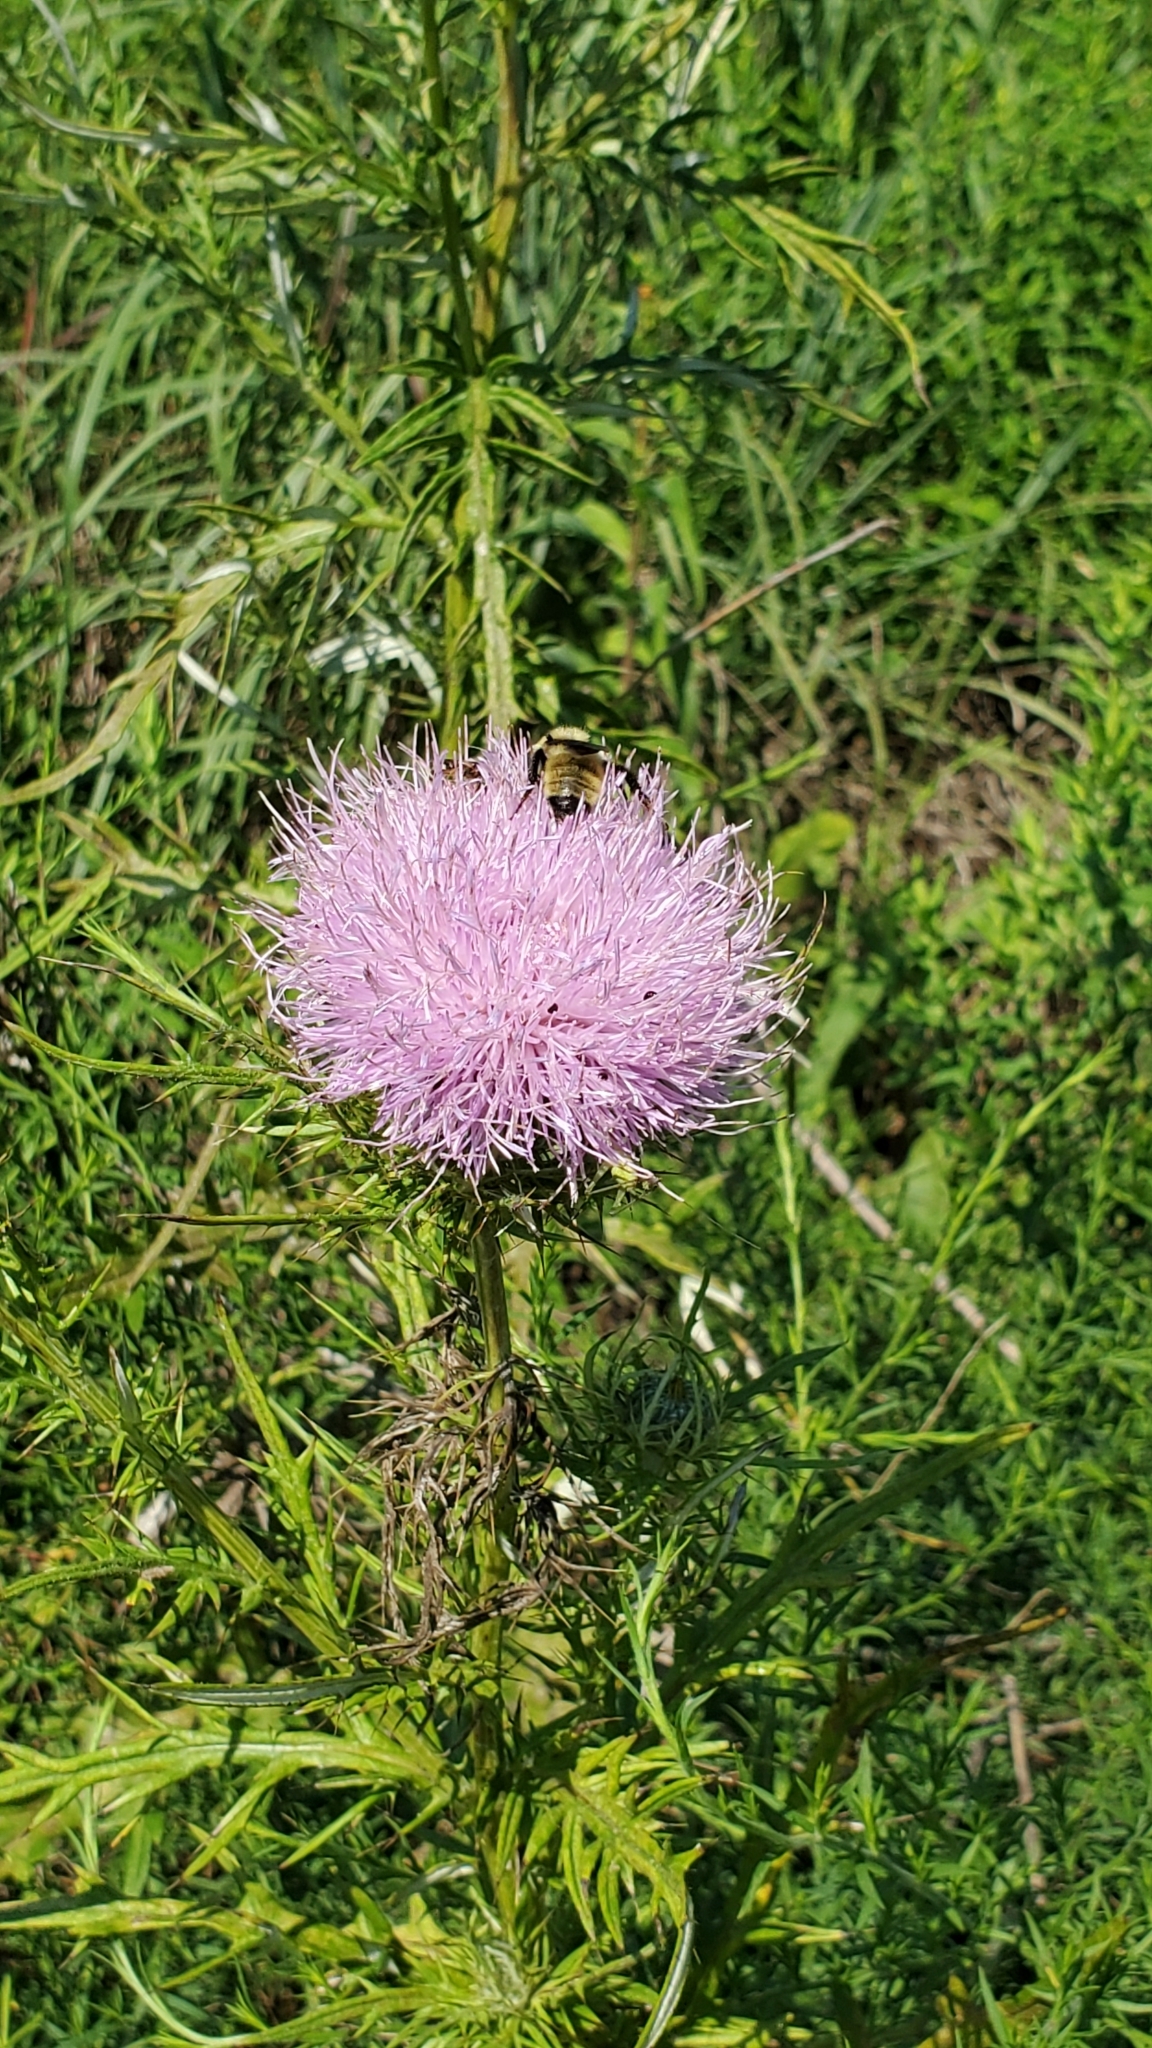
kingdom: Plantae
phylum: Tracheophyta
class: Magnoliopsida
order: Asterales
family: Asteraceae
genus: Cirsium
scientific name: Cirsium discolor
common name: Field thistle
